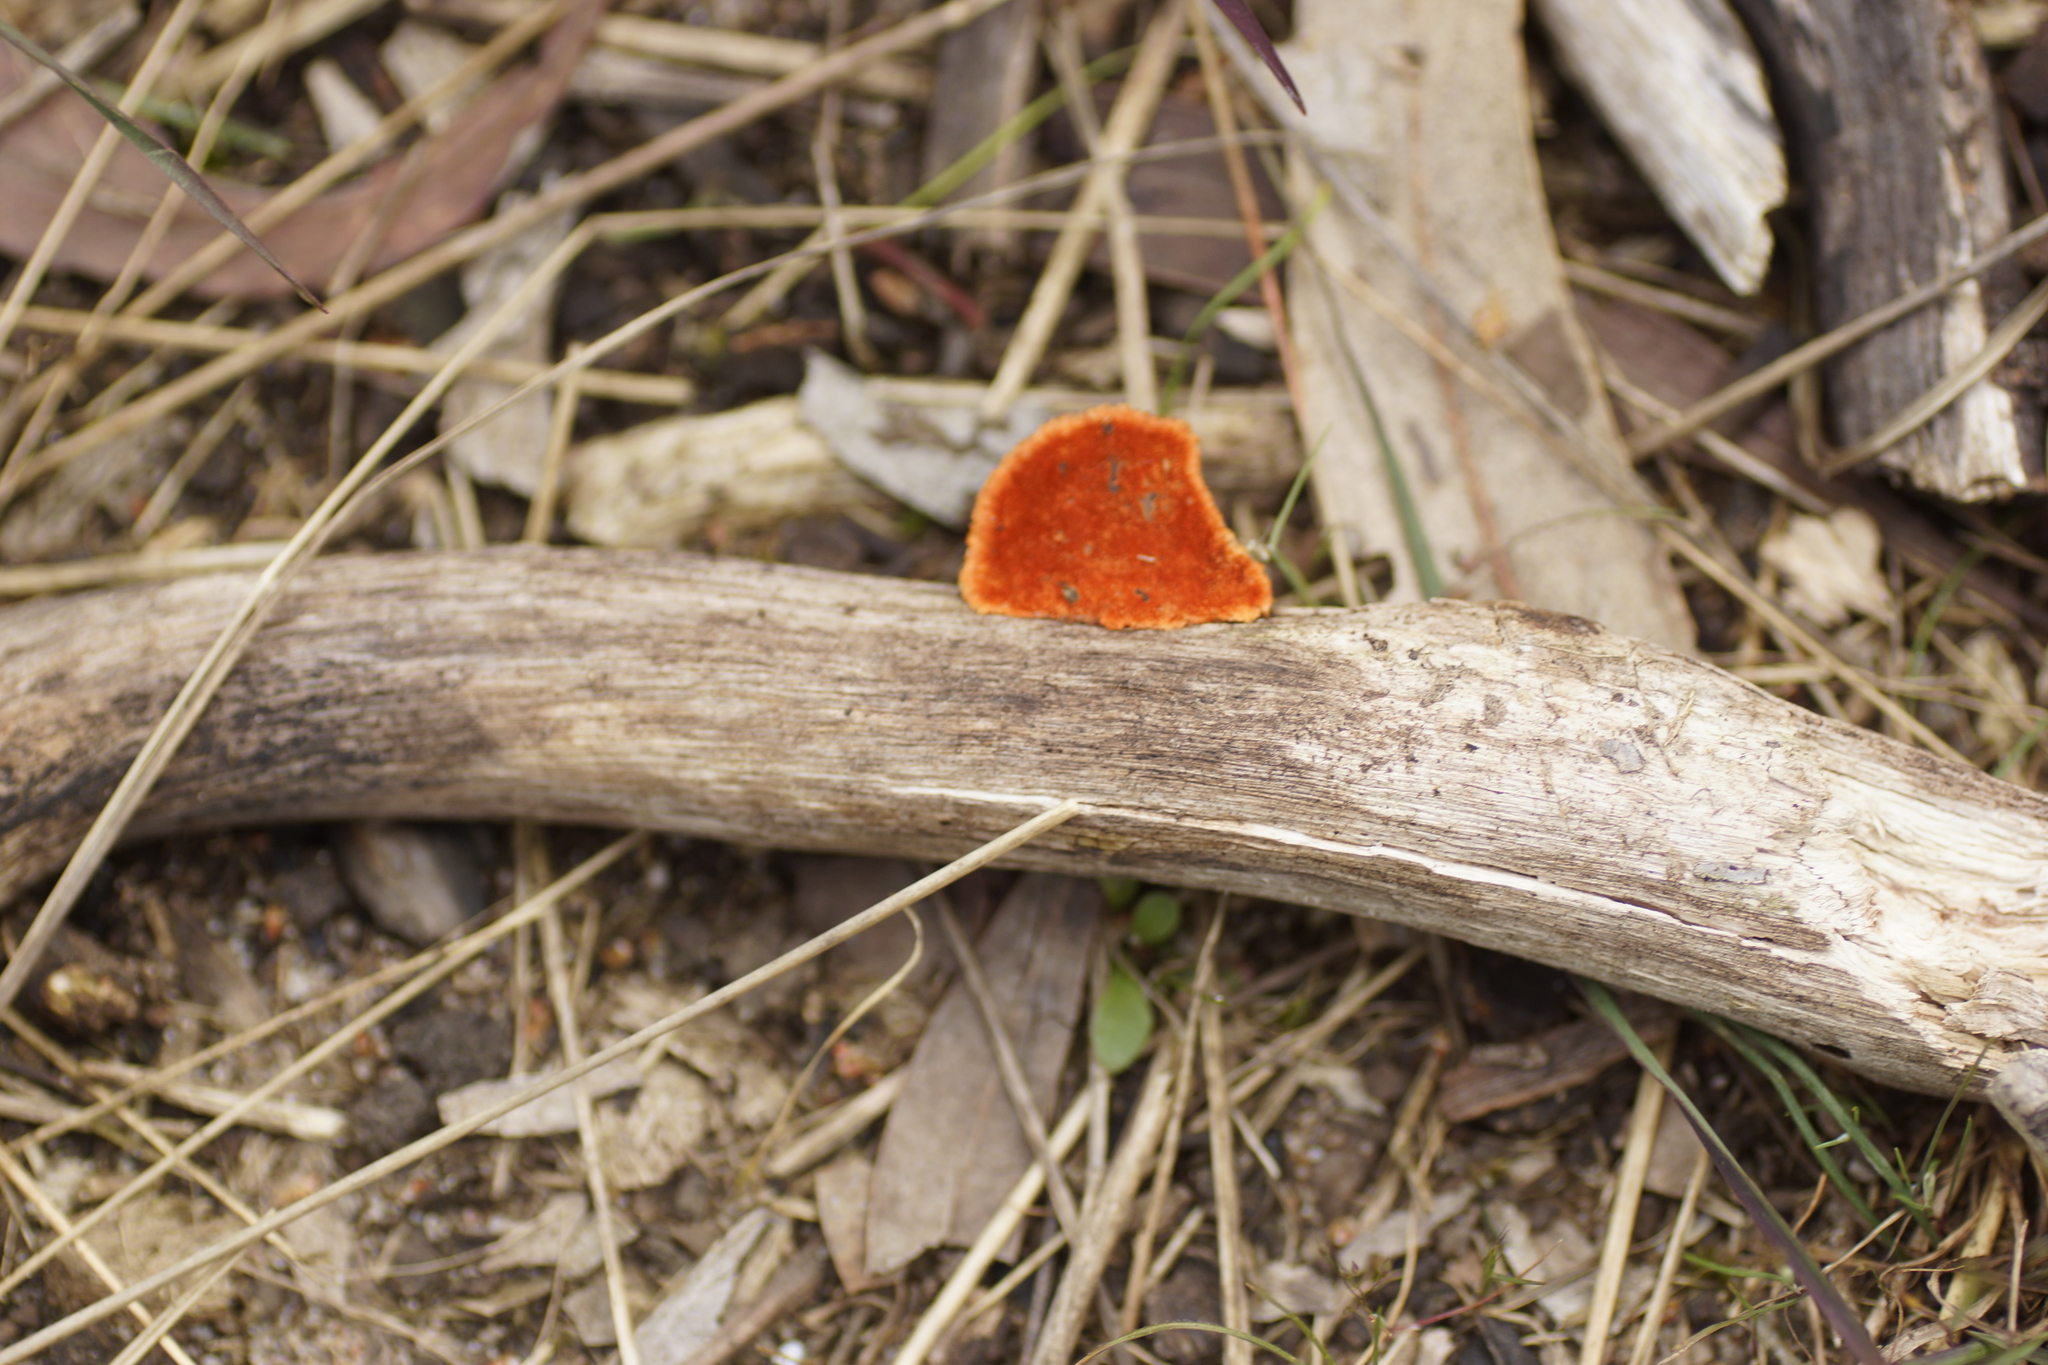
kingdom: Fungi
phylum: Basidiomycota
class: Agaricomycetes
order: Polyporales
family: Polyporaceae
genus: Trametes
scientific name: Trametes coccinea
